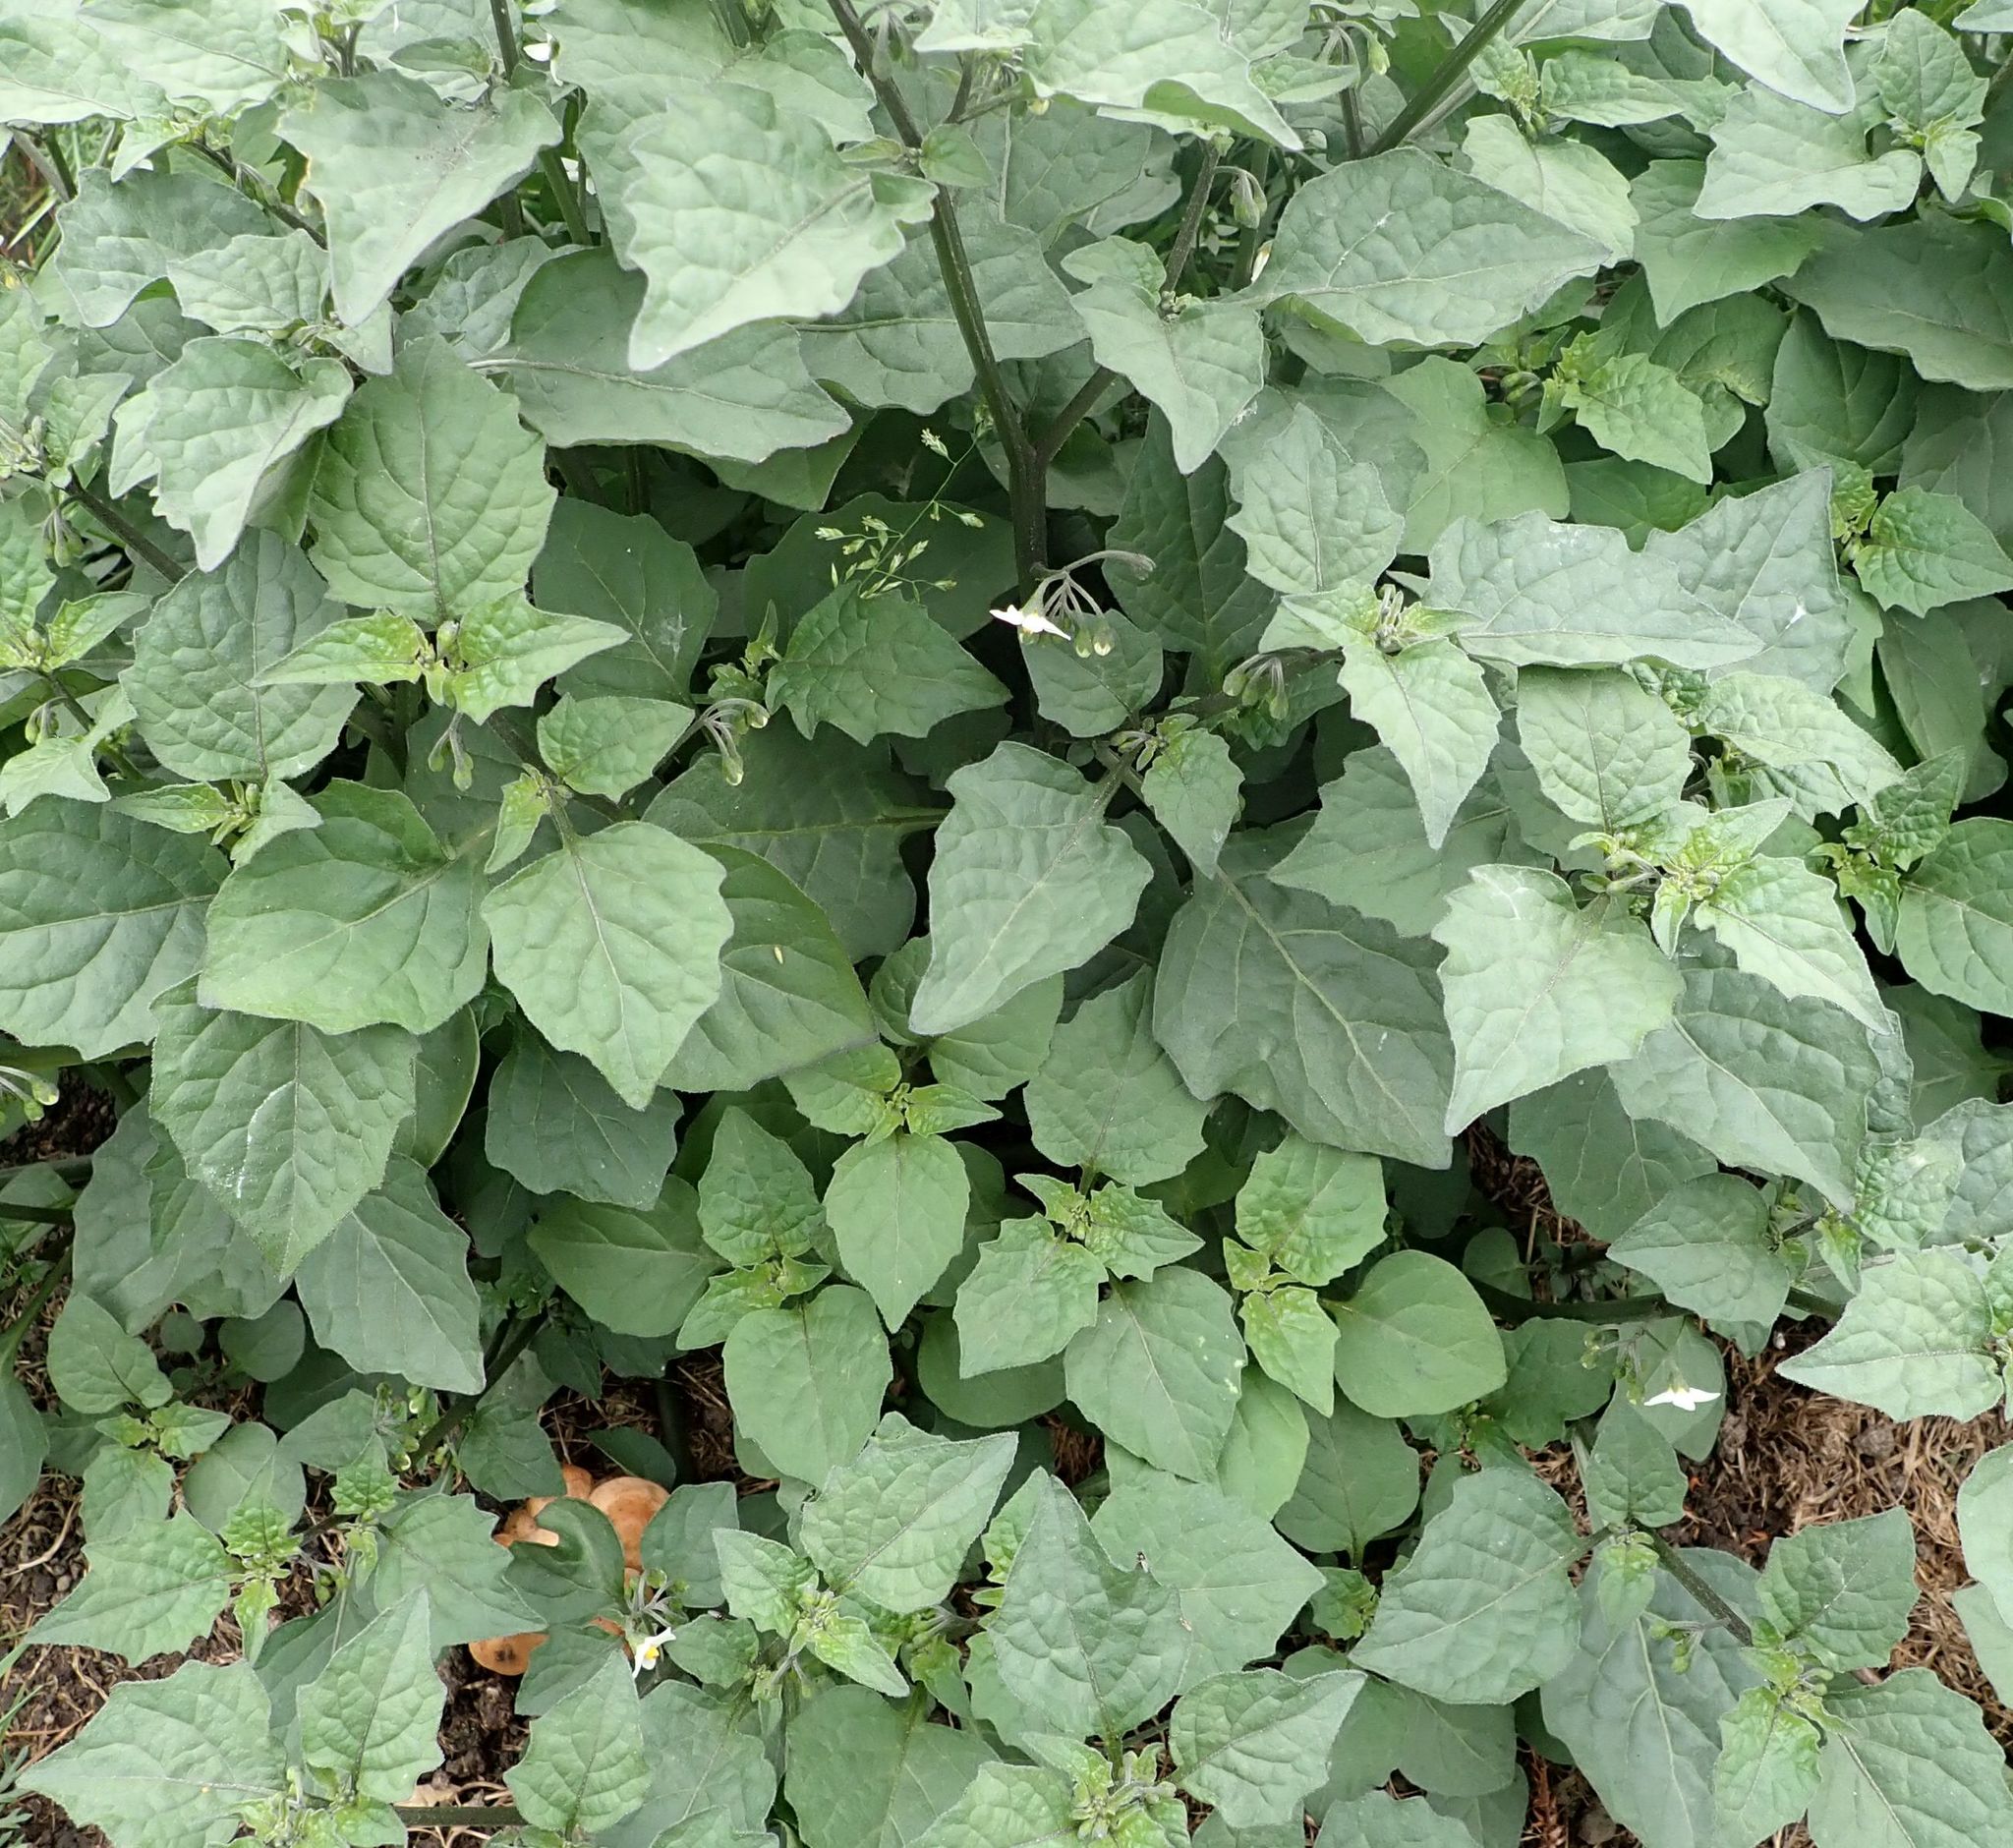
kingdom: Plantae
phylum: Tracheophyta
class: Magnoliopsida
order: Solanales
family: Solanaceae
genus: Solanum
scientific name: Solanum nigrum
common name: Black nightshade
